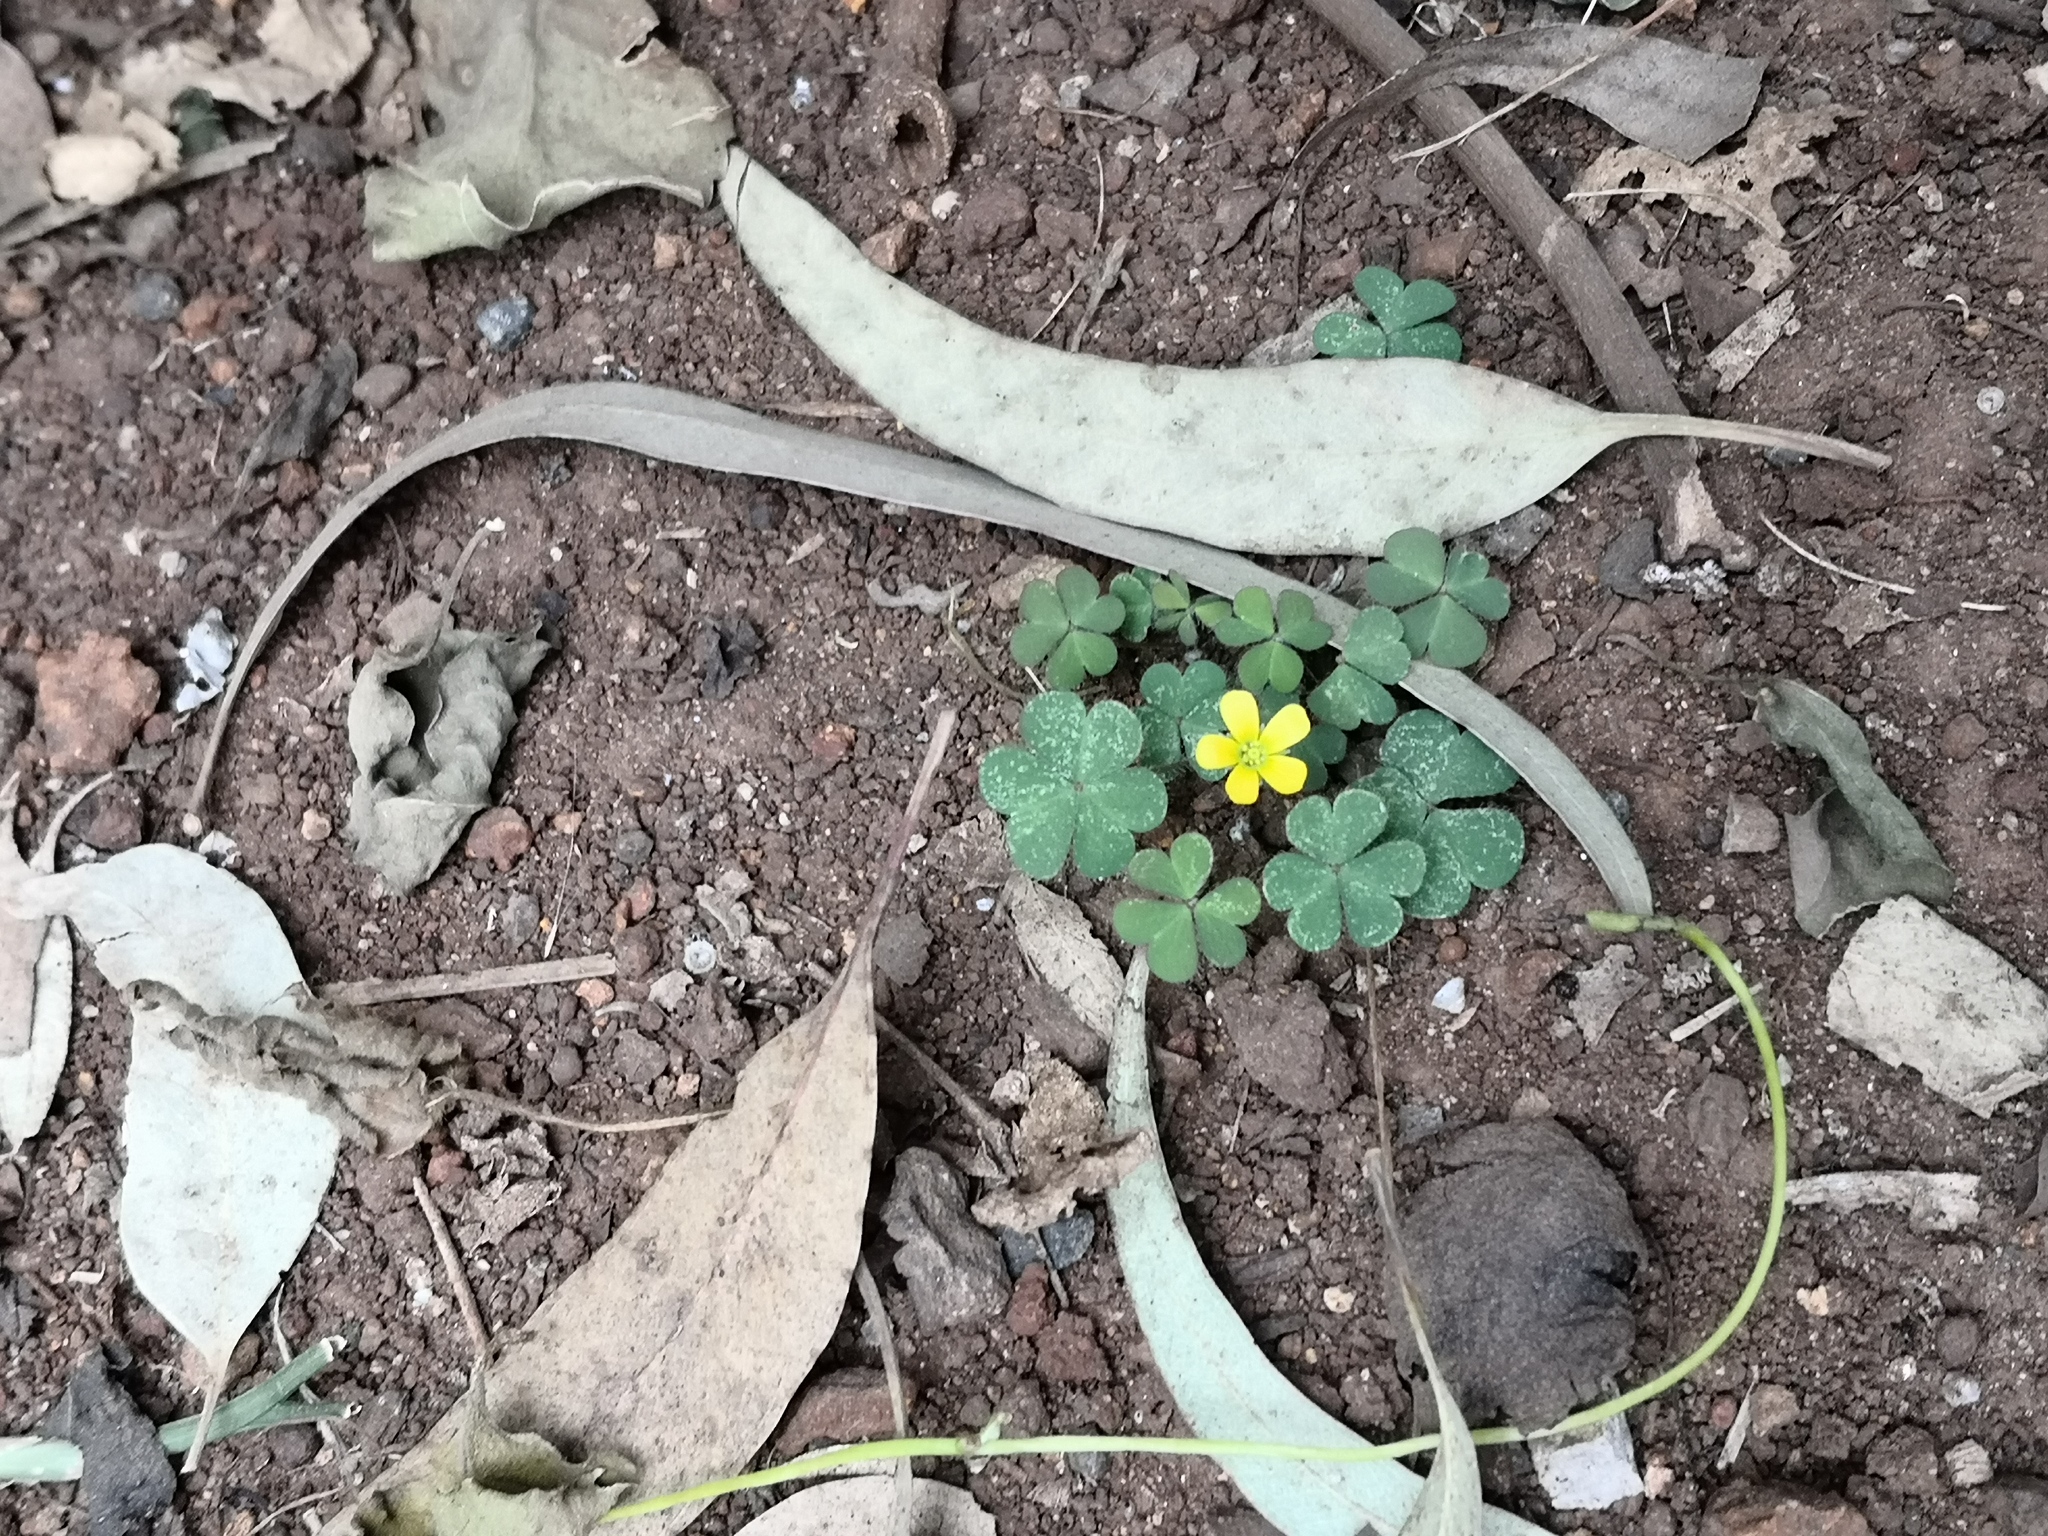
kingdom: Plantae
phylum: Tracheophyta
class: Magnoliopsida
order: Oxalidales
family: Oxalidaceae
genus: Oxalis
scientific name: Oxalis corniculata
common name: Procumbent yellow-sorrel
